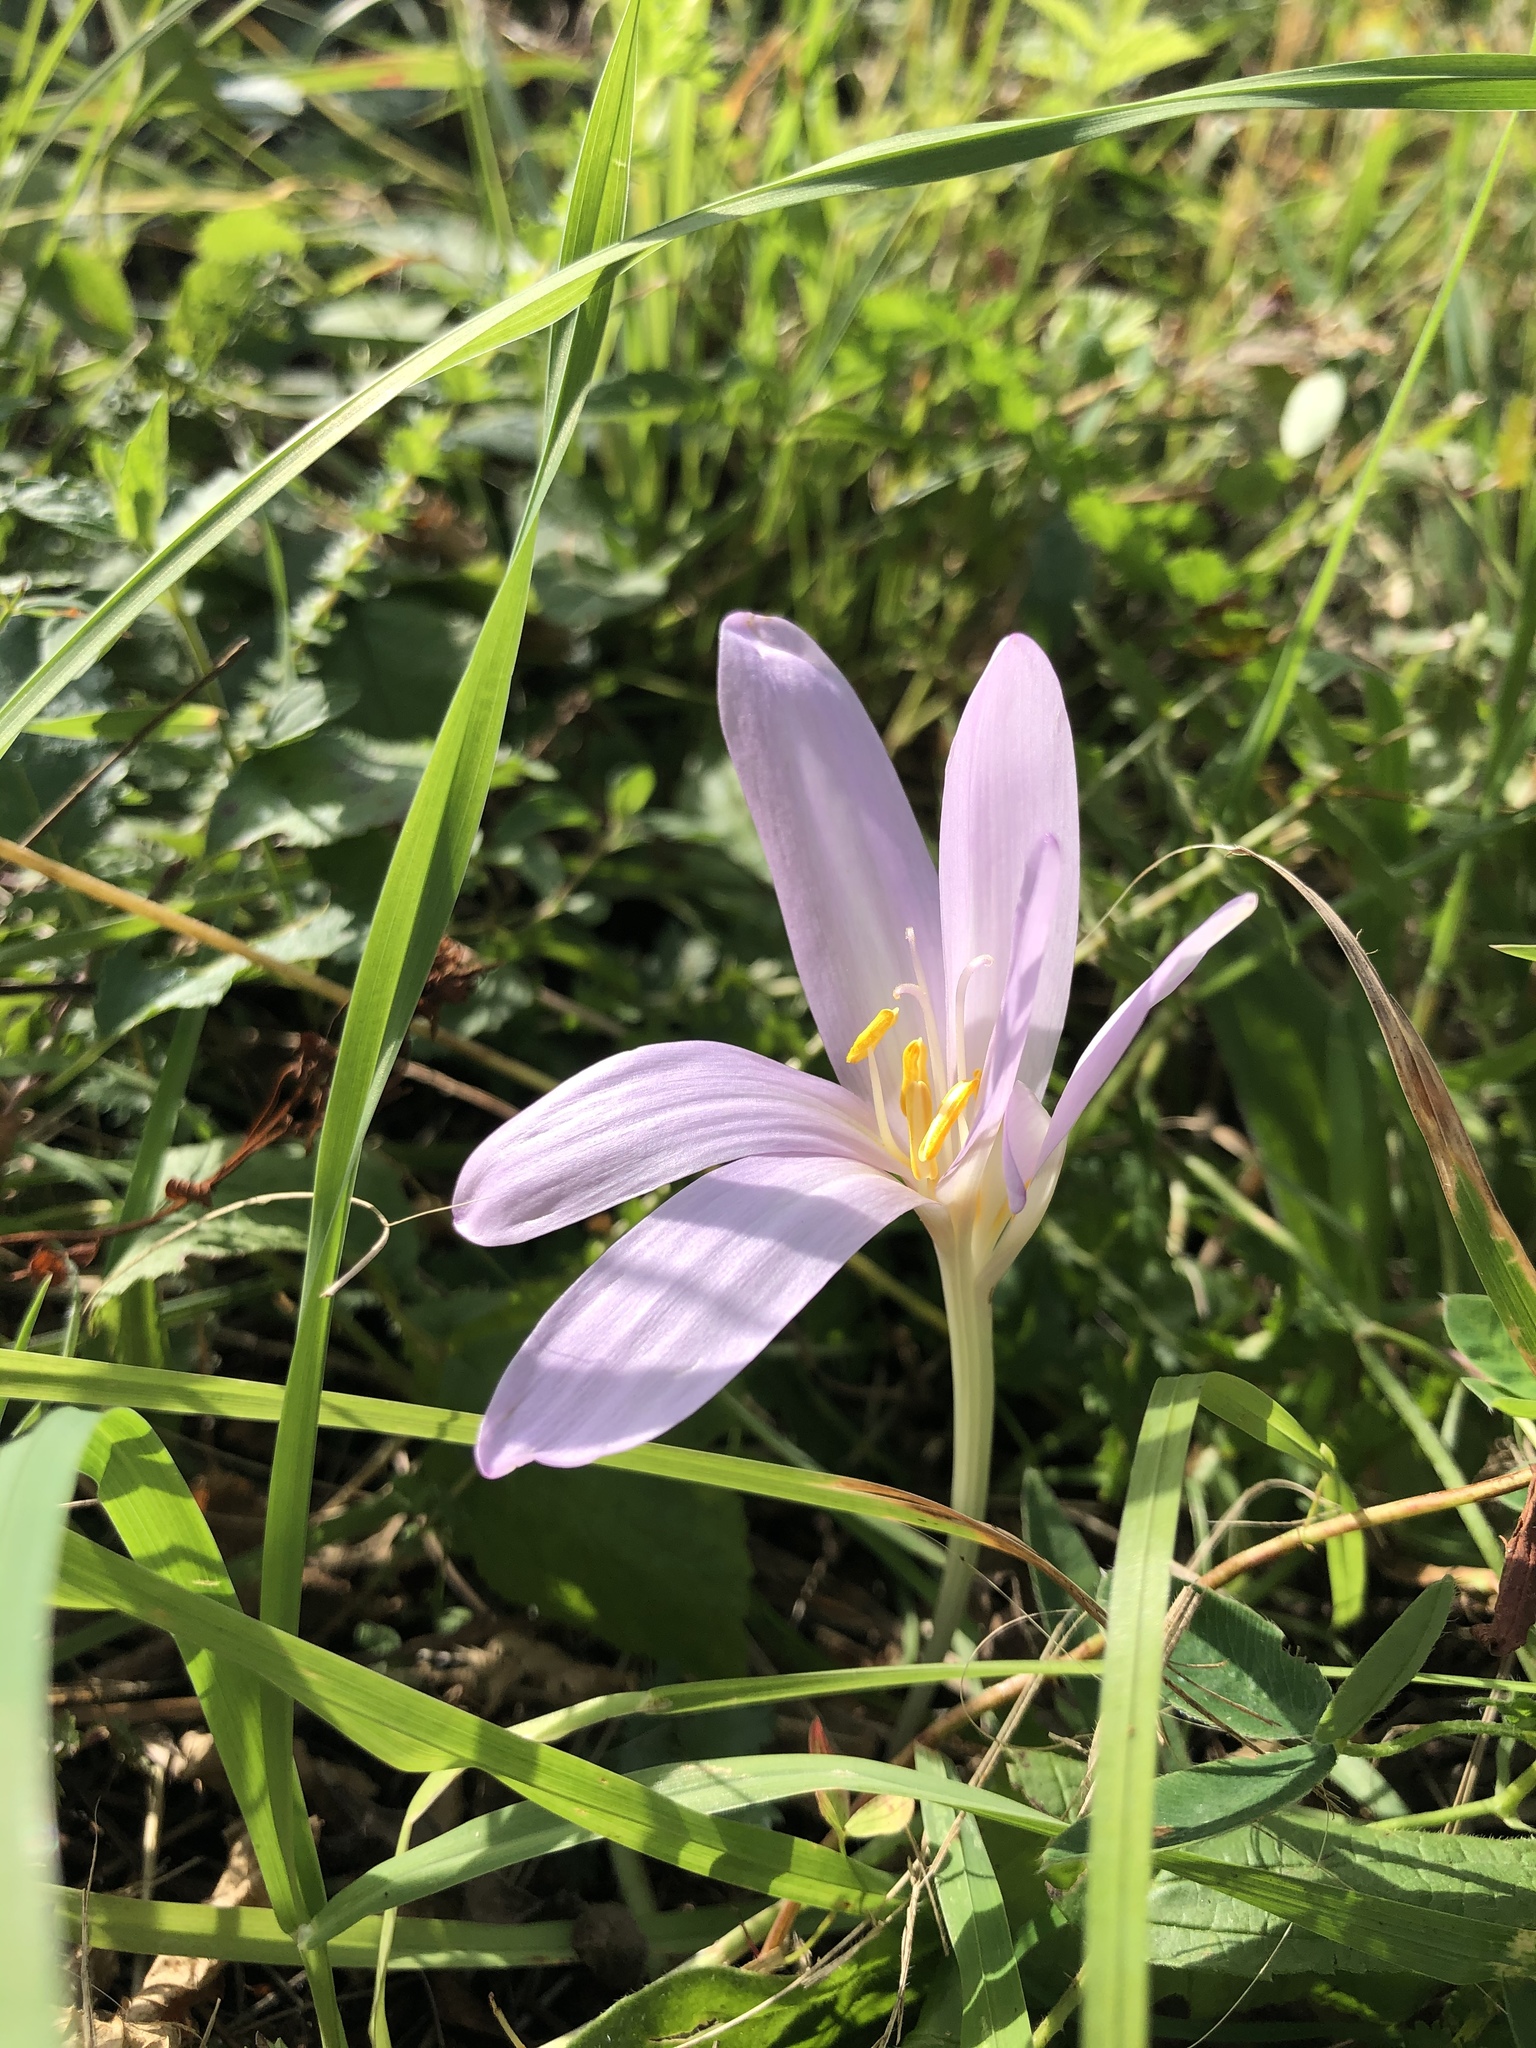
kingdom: Plantae
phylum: Tracheophyta
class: Liliopsida
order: Liliales
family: Colchicaceae
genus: Colchicum
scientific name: Colchicum autumnale
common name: Autumn crocus
